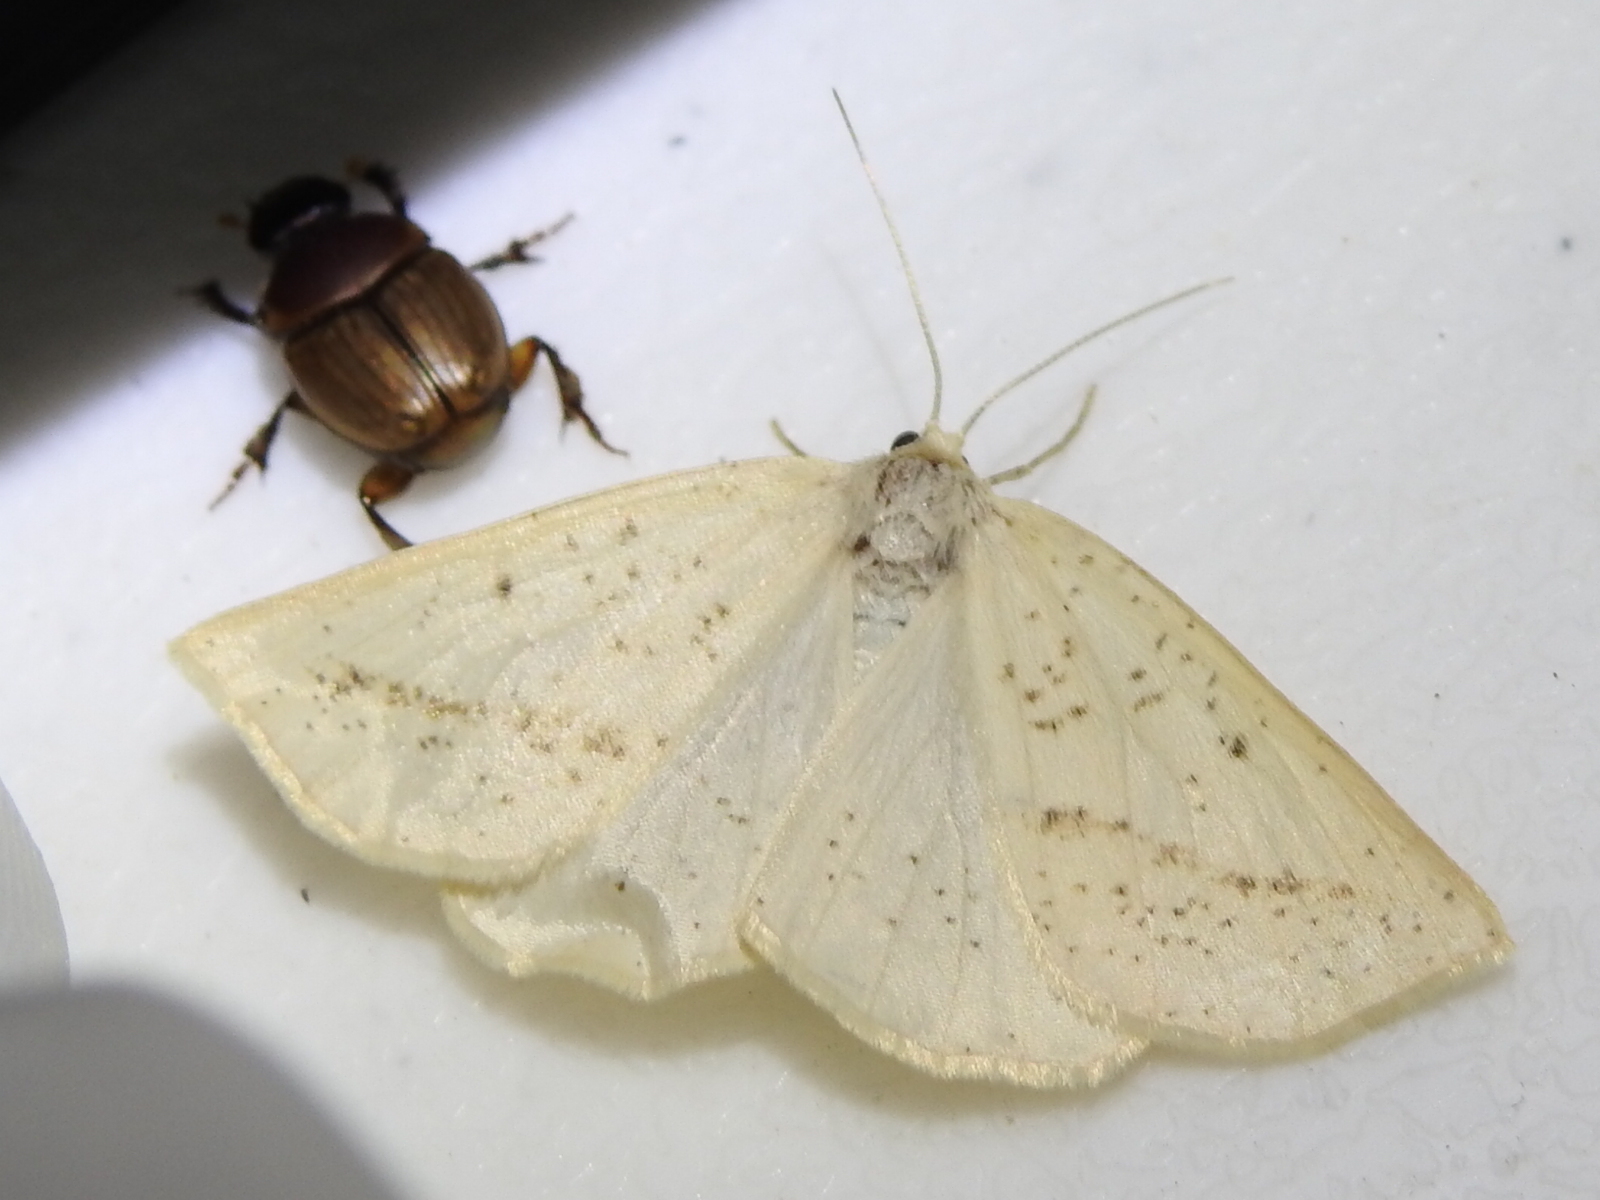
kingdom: Animalia
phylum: Arthropoda
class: Insecta
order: Lepidoptera
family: Geometridae
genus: Lychnosea
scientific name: Lychnosea intermicata
